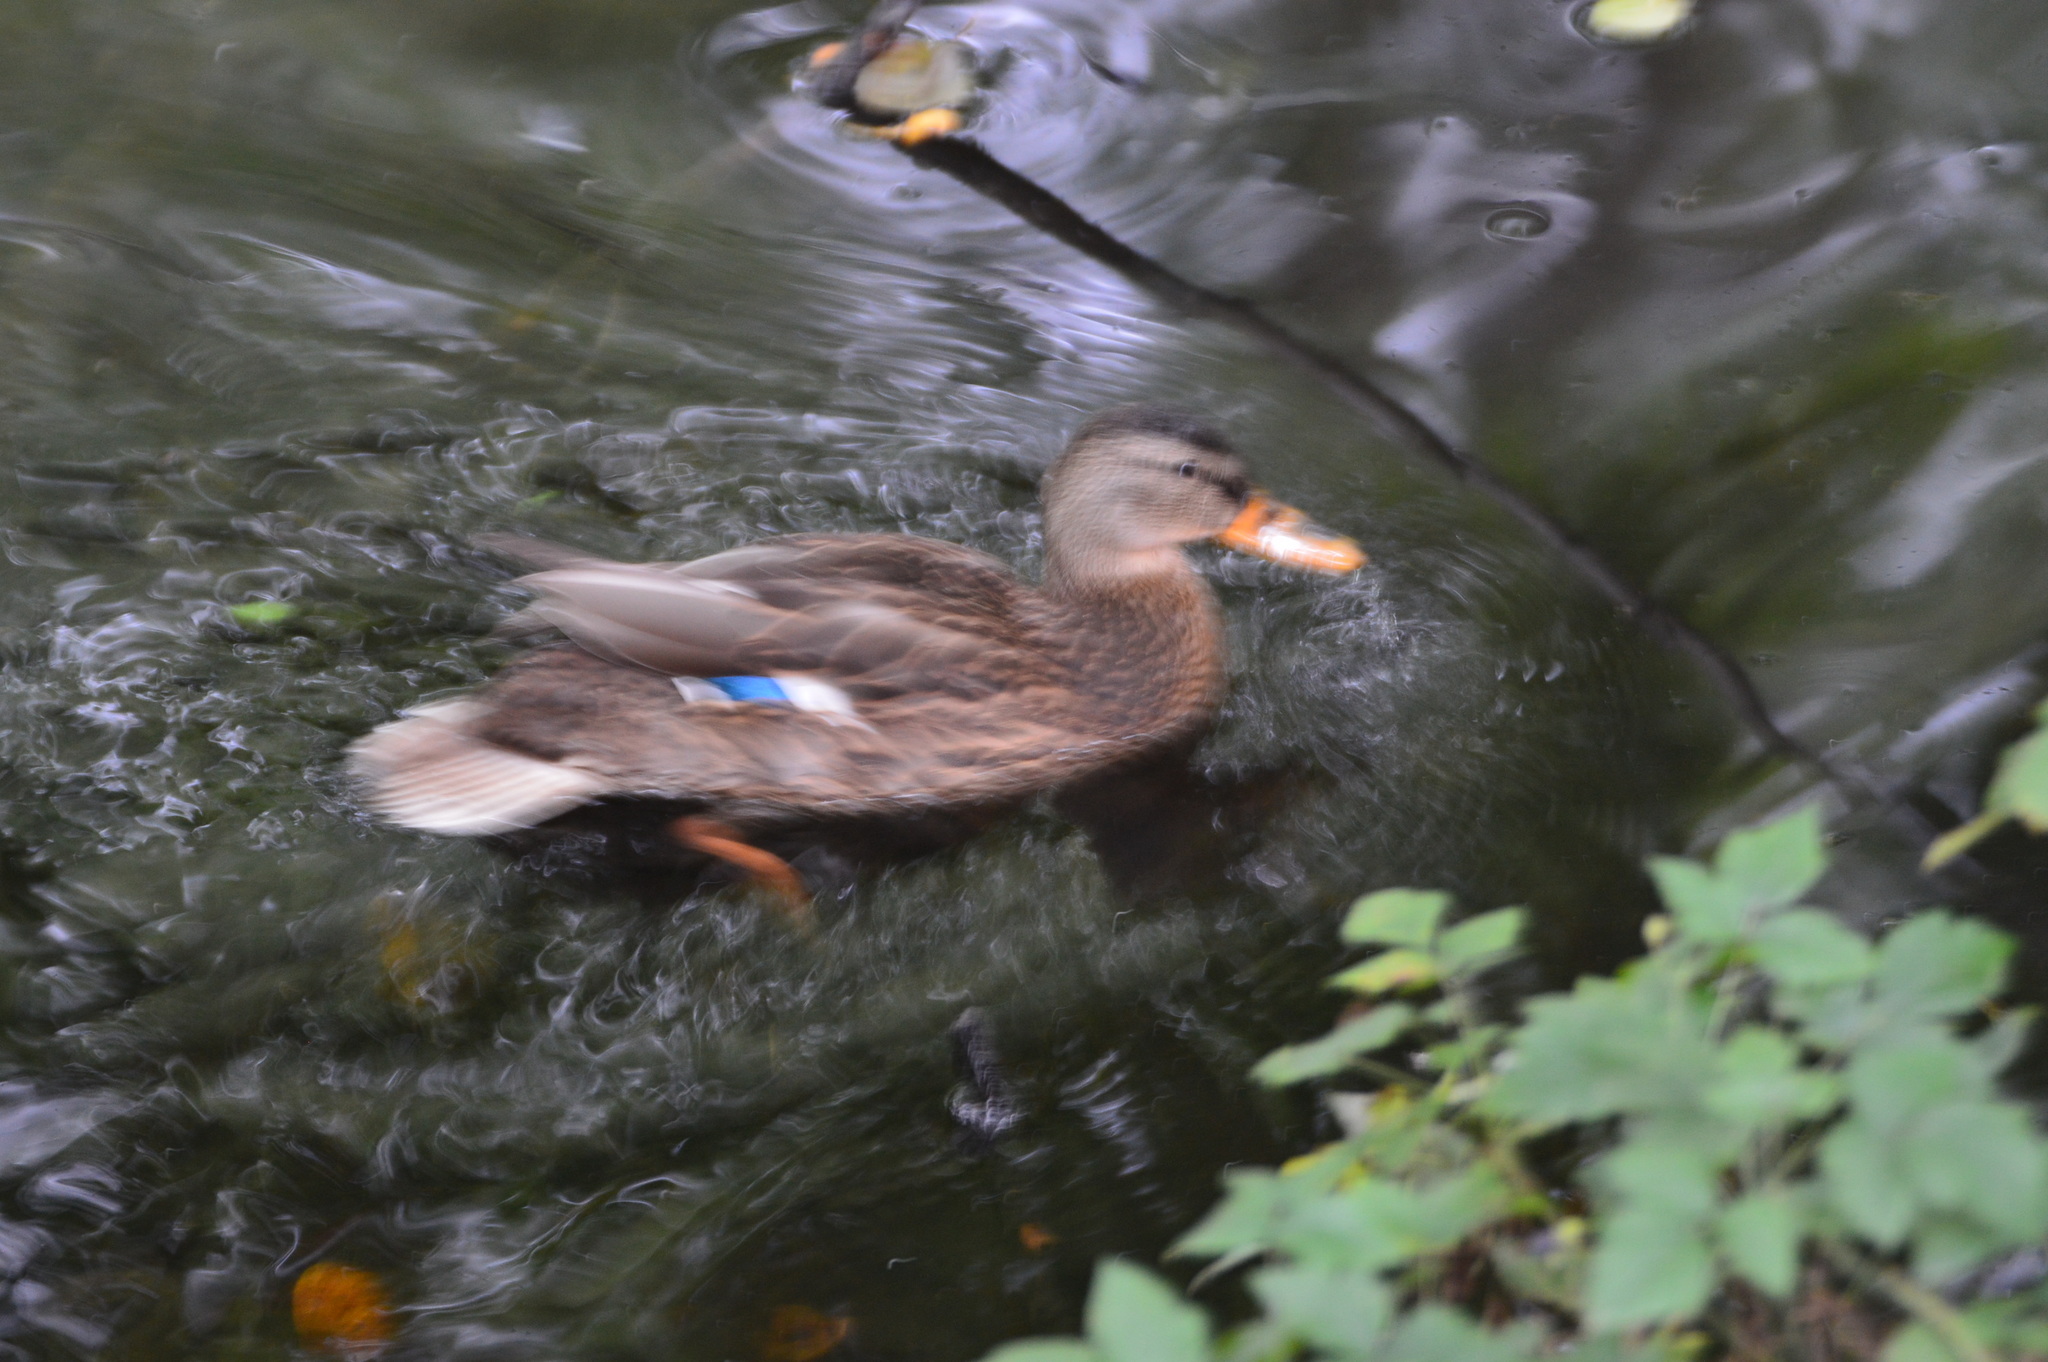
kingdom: Animalia
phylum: Chordata
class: Aves
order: Anseriformes
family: Anatidae
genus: Anas
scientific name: Anas platyrhynchos
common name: Mallard
